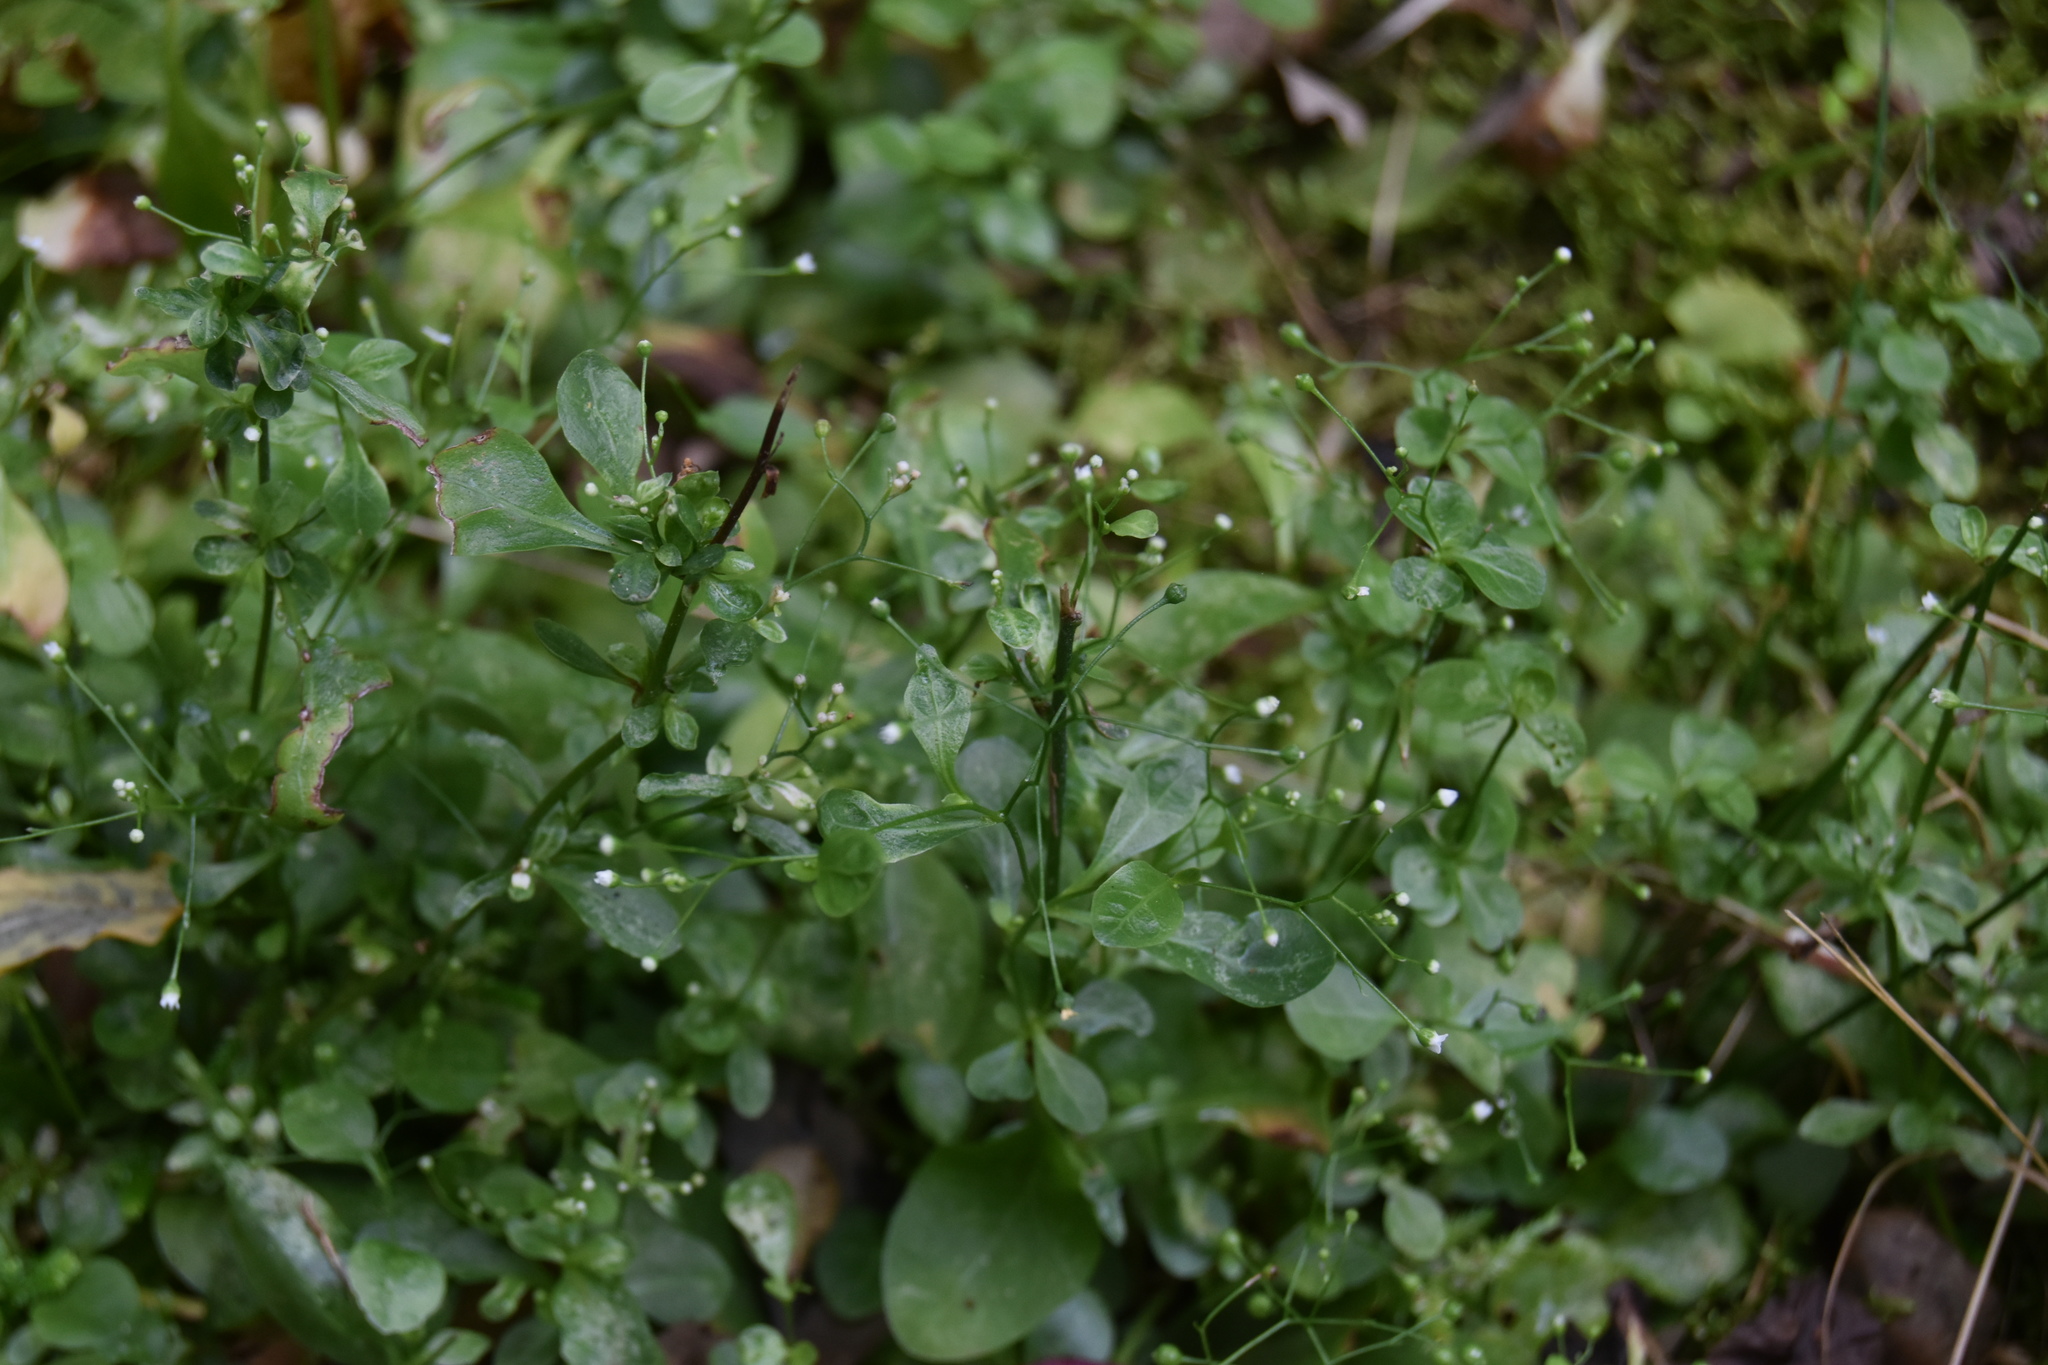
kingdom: Plantae
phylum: Tracheophyta
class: Magnoliopsida
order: Ericales
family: Primulaceae
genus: Samolus
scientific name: Samolus parviflorus
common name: False water pimpernel
